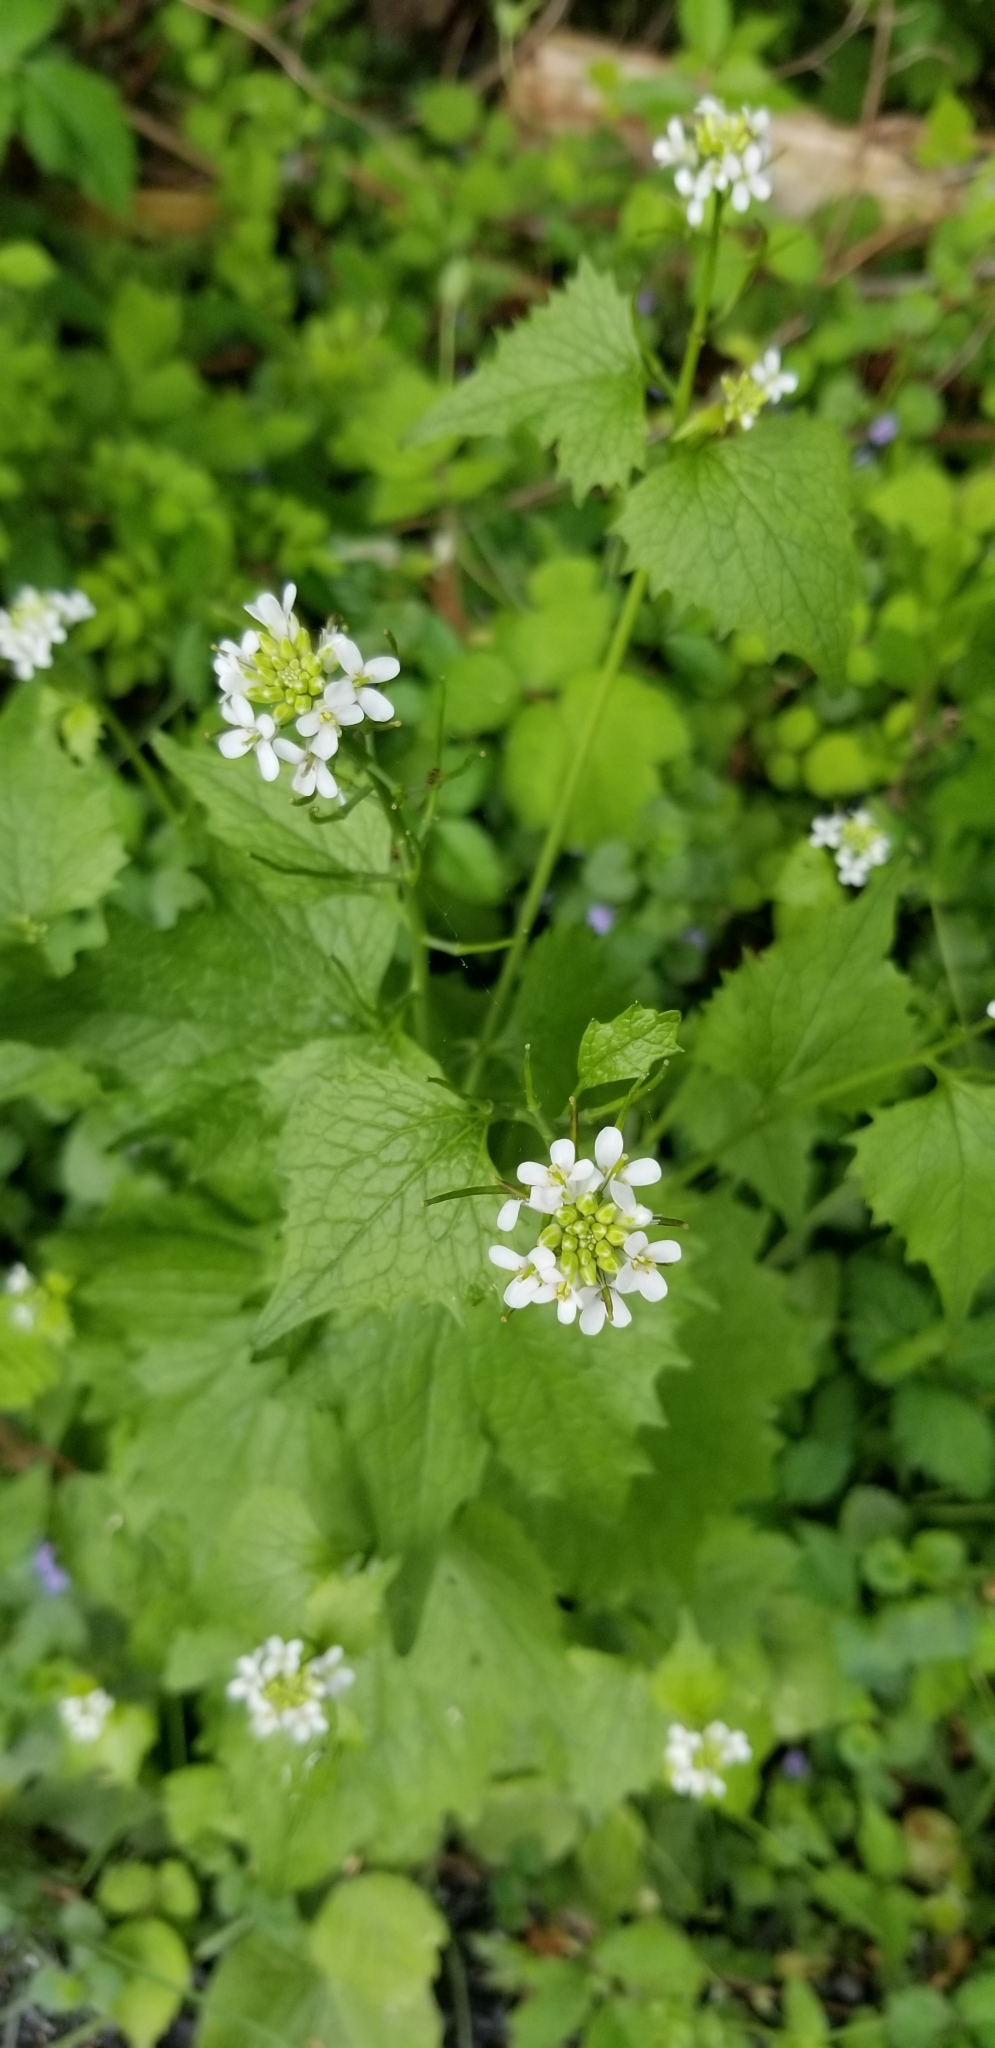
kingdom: Plantae
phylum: Tracheophyta
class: Magnoliopsida
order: Brassicales
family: Brassicaceae
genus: Alliaria
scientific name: Alliaria petiolata
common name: Garlic mustard
